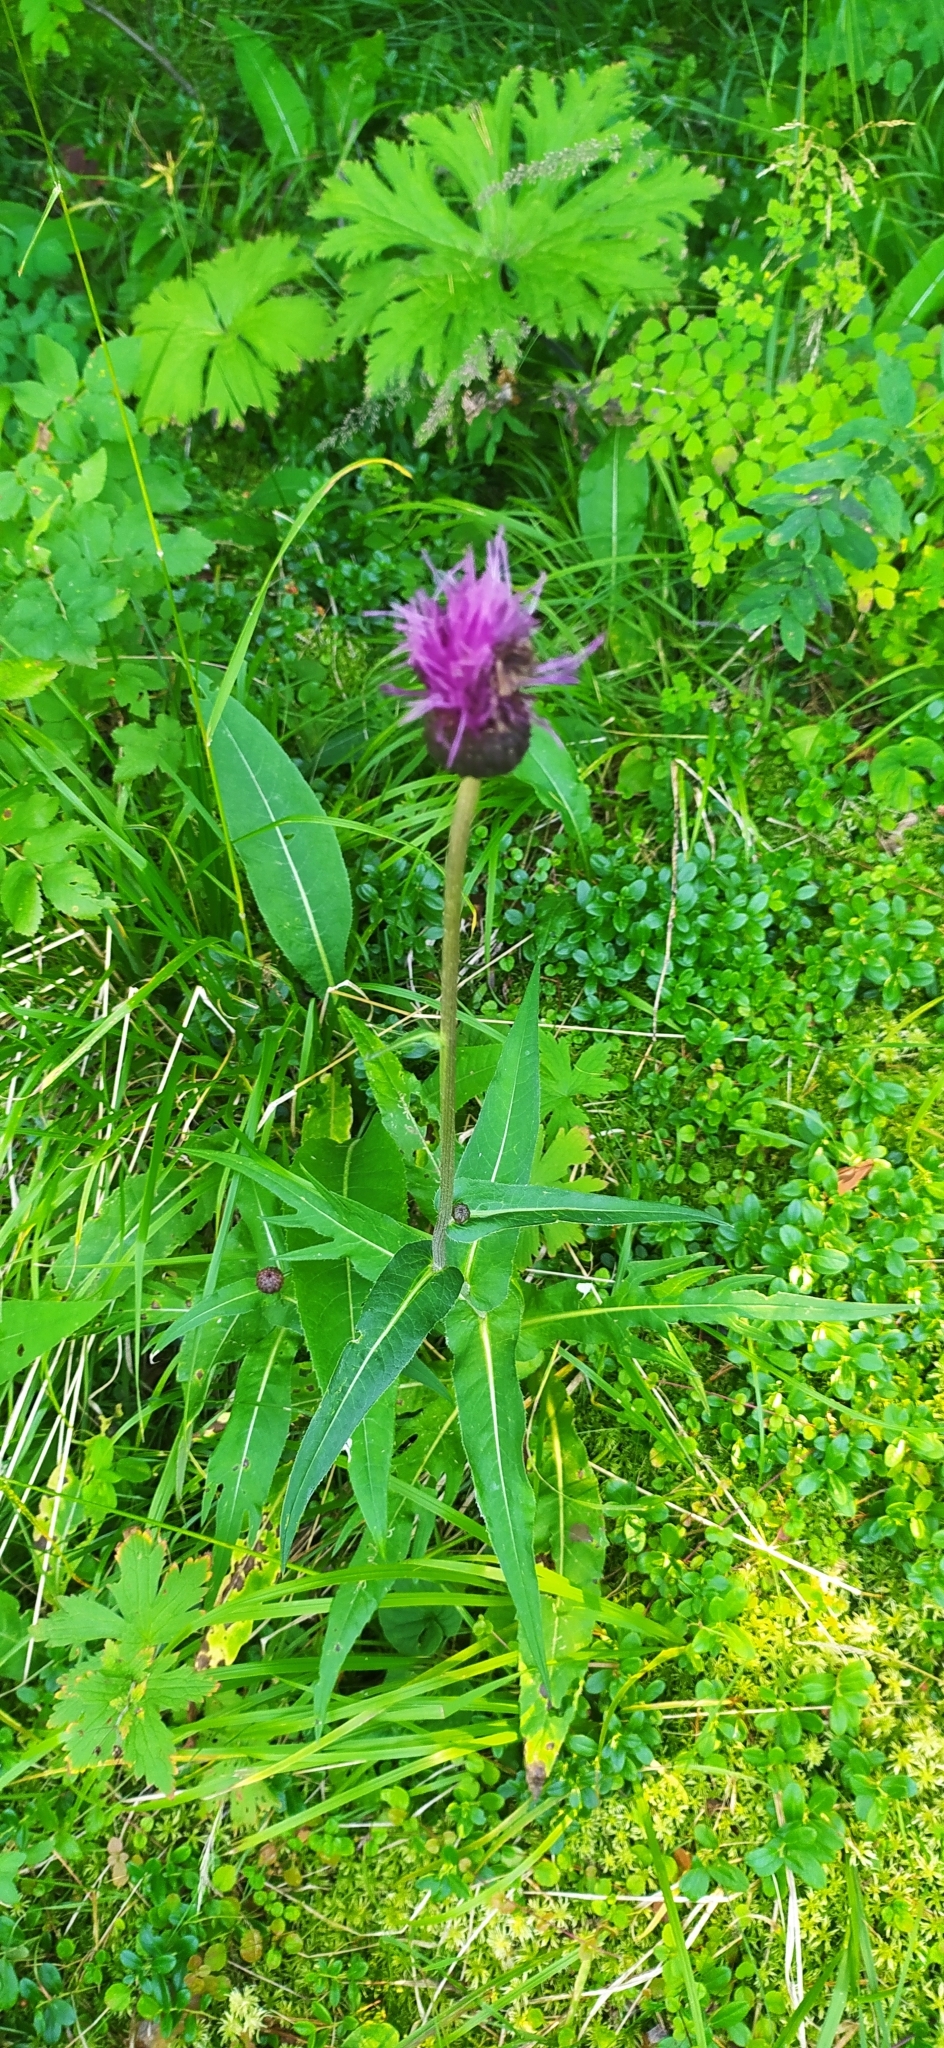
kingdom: Plantae
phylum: Tracheophyta
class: Magnoliopsida
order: Asterales
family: Asteraceae
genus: Cirsium
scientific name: Cirsium heterophyllum
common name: Melancholy thistle
